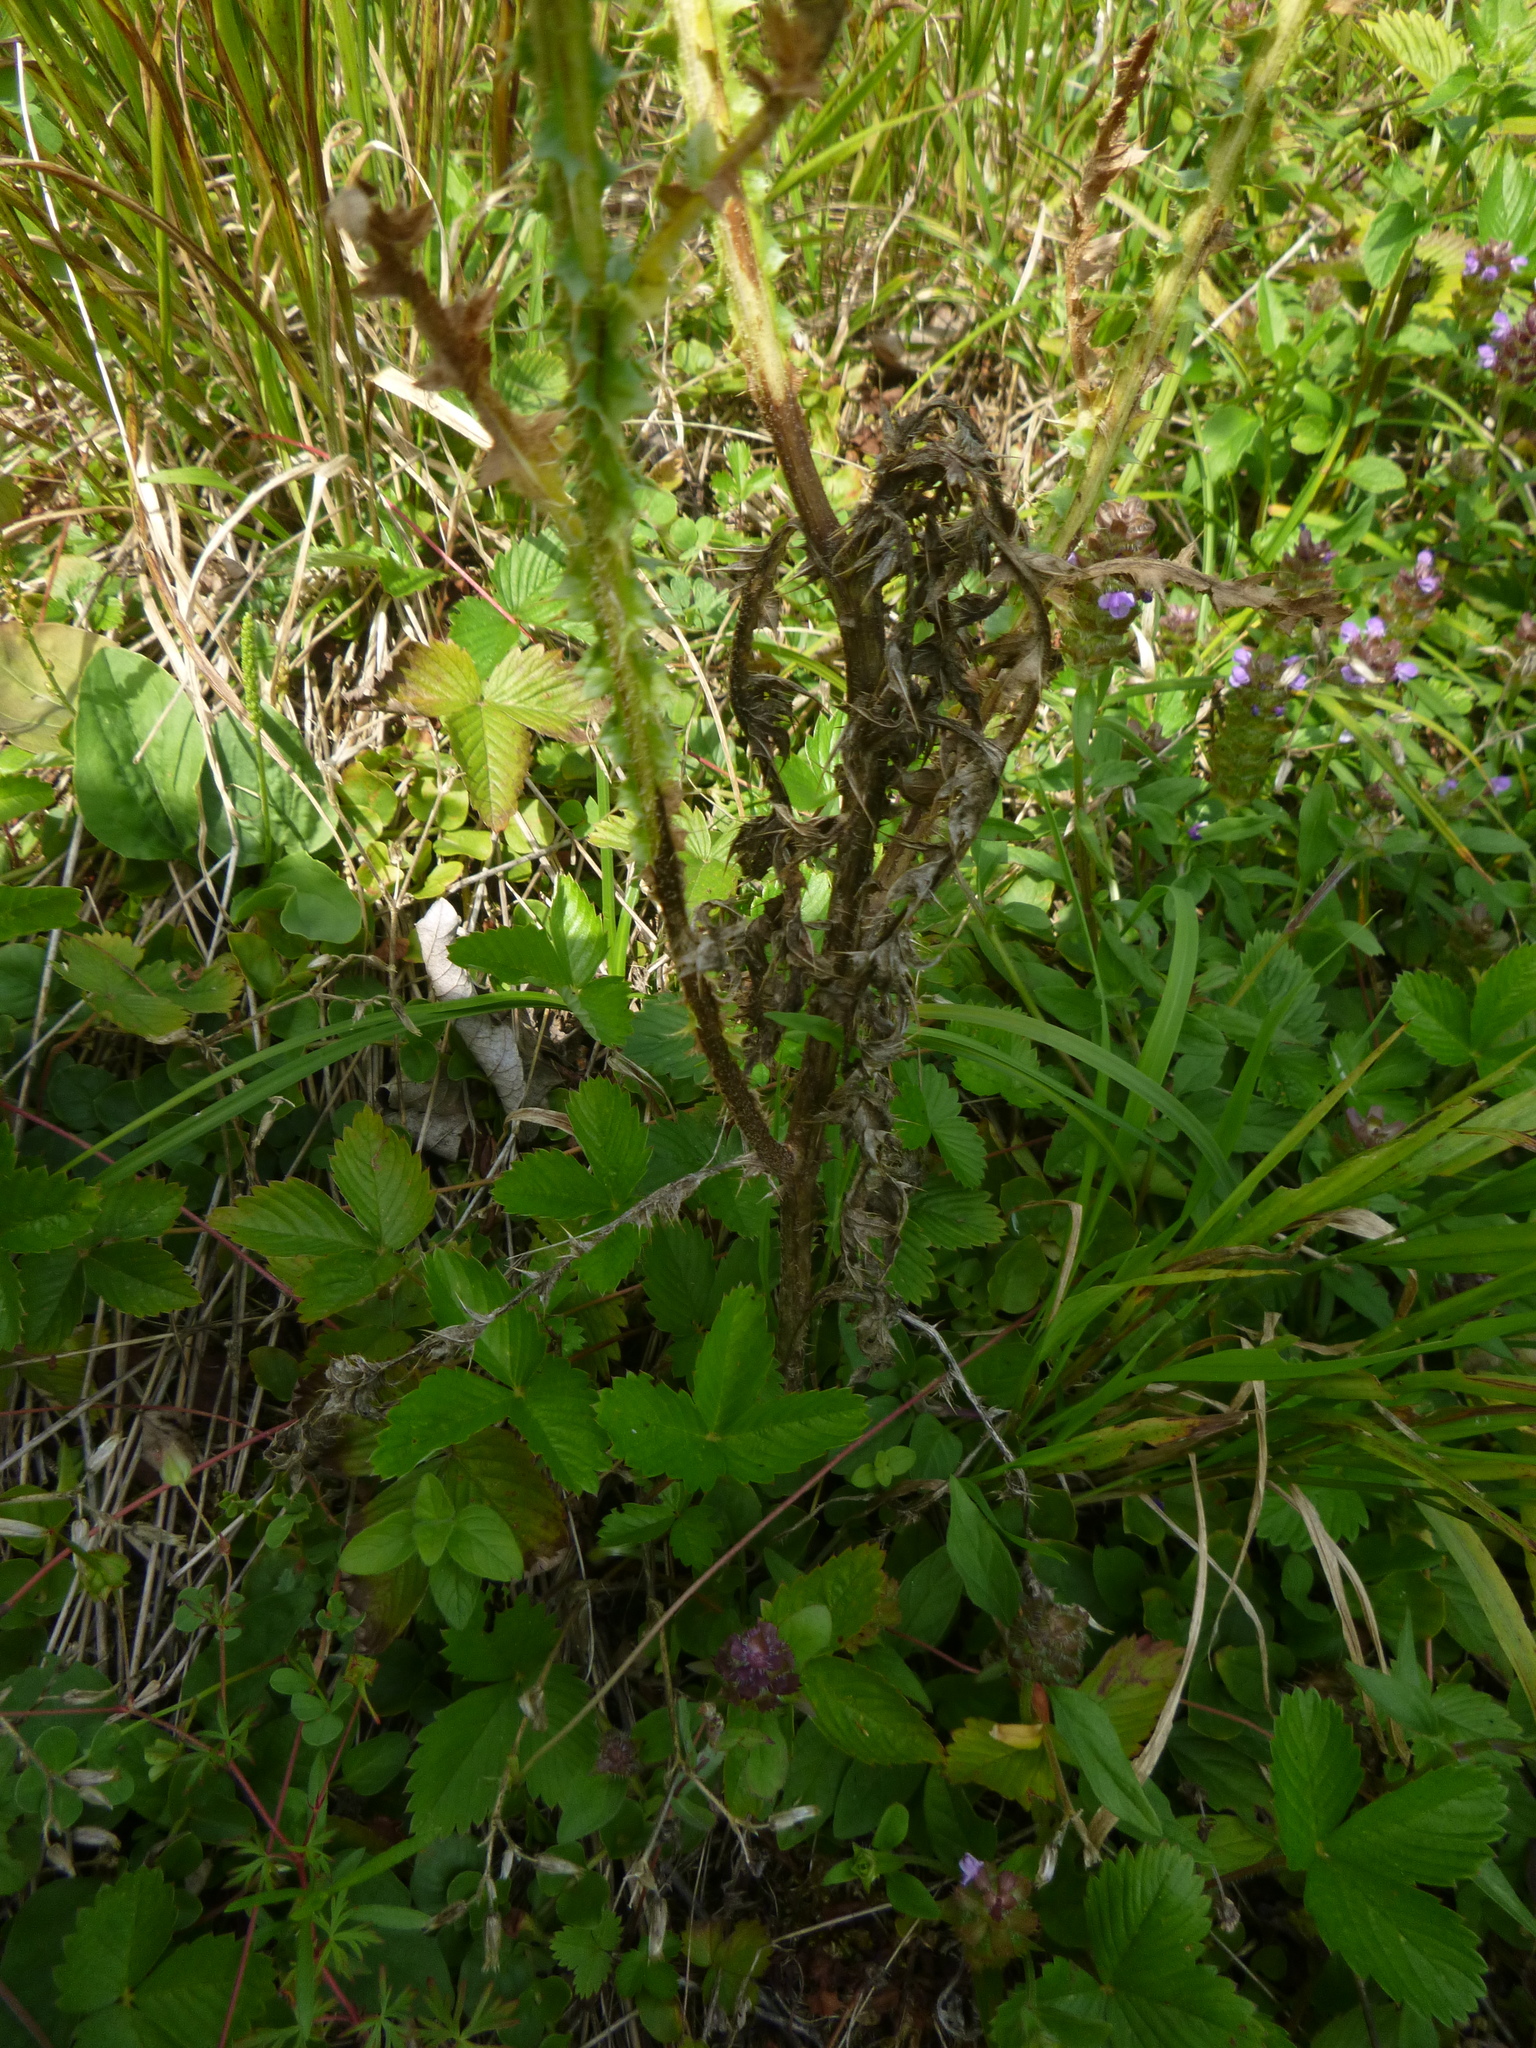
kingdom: Plantae
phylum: Tracheophyta
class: Magnoliopsida
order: Asterales
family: Asteraceae
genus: Carduus
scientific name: Carduus acanthoides
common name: Plumeless thistle
